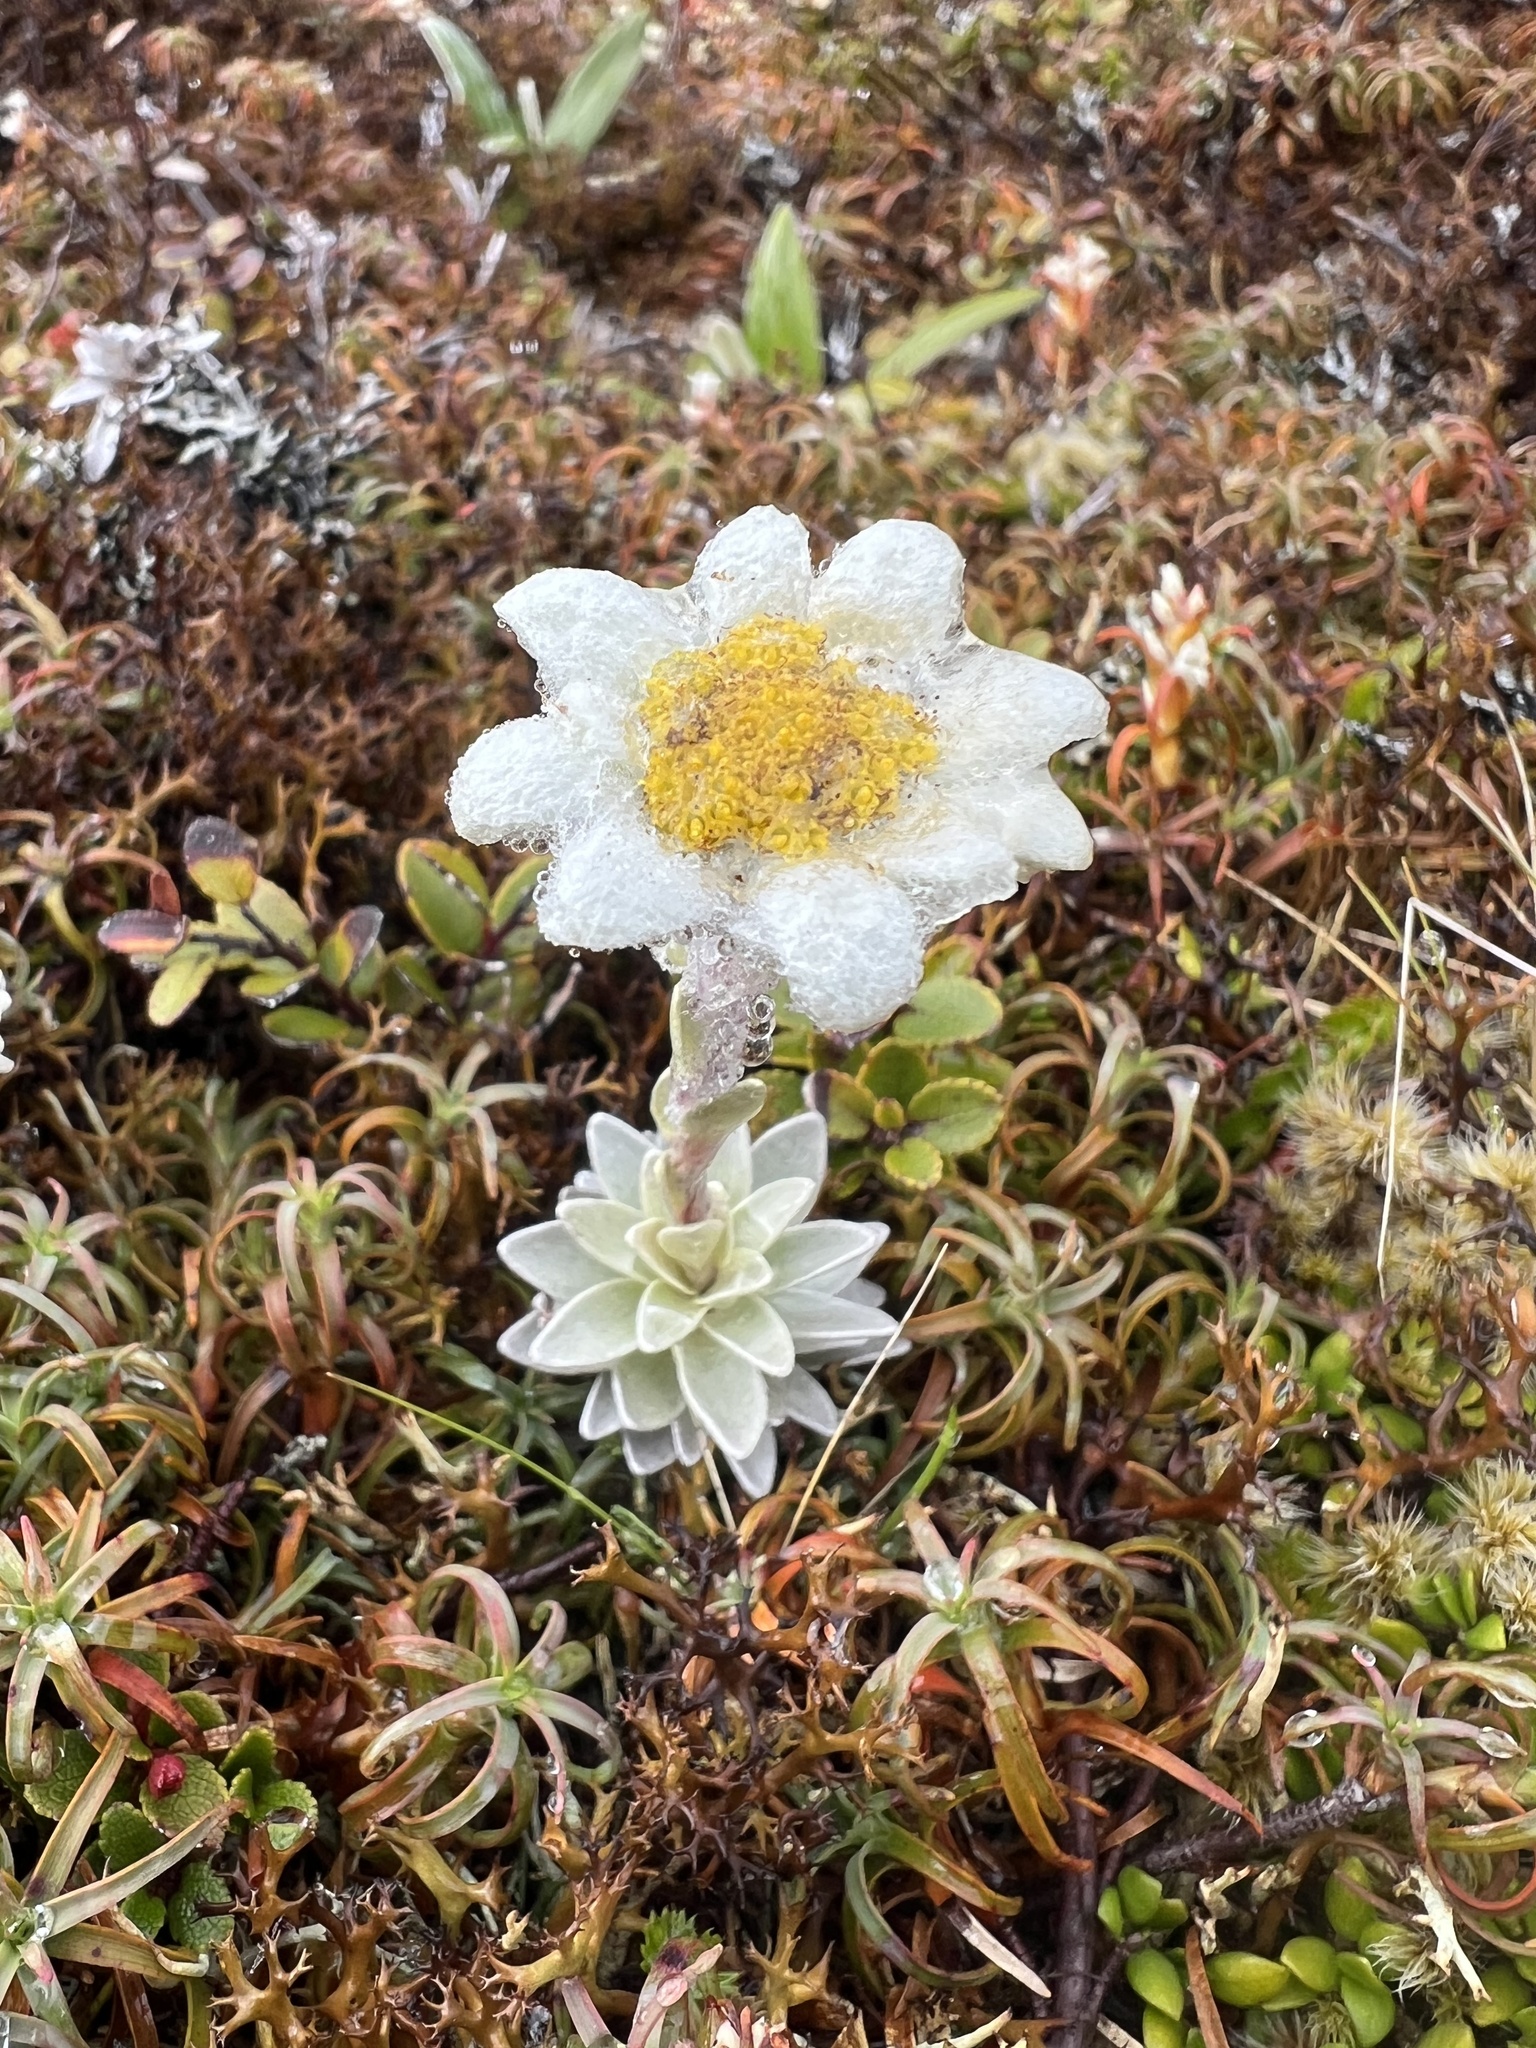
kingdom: Plantae
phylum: Tracheophyta
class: Magnoliopsida
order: Asterales
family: Asteraceae
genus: Leucogenes
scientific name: Leucogenes leontopodium
